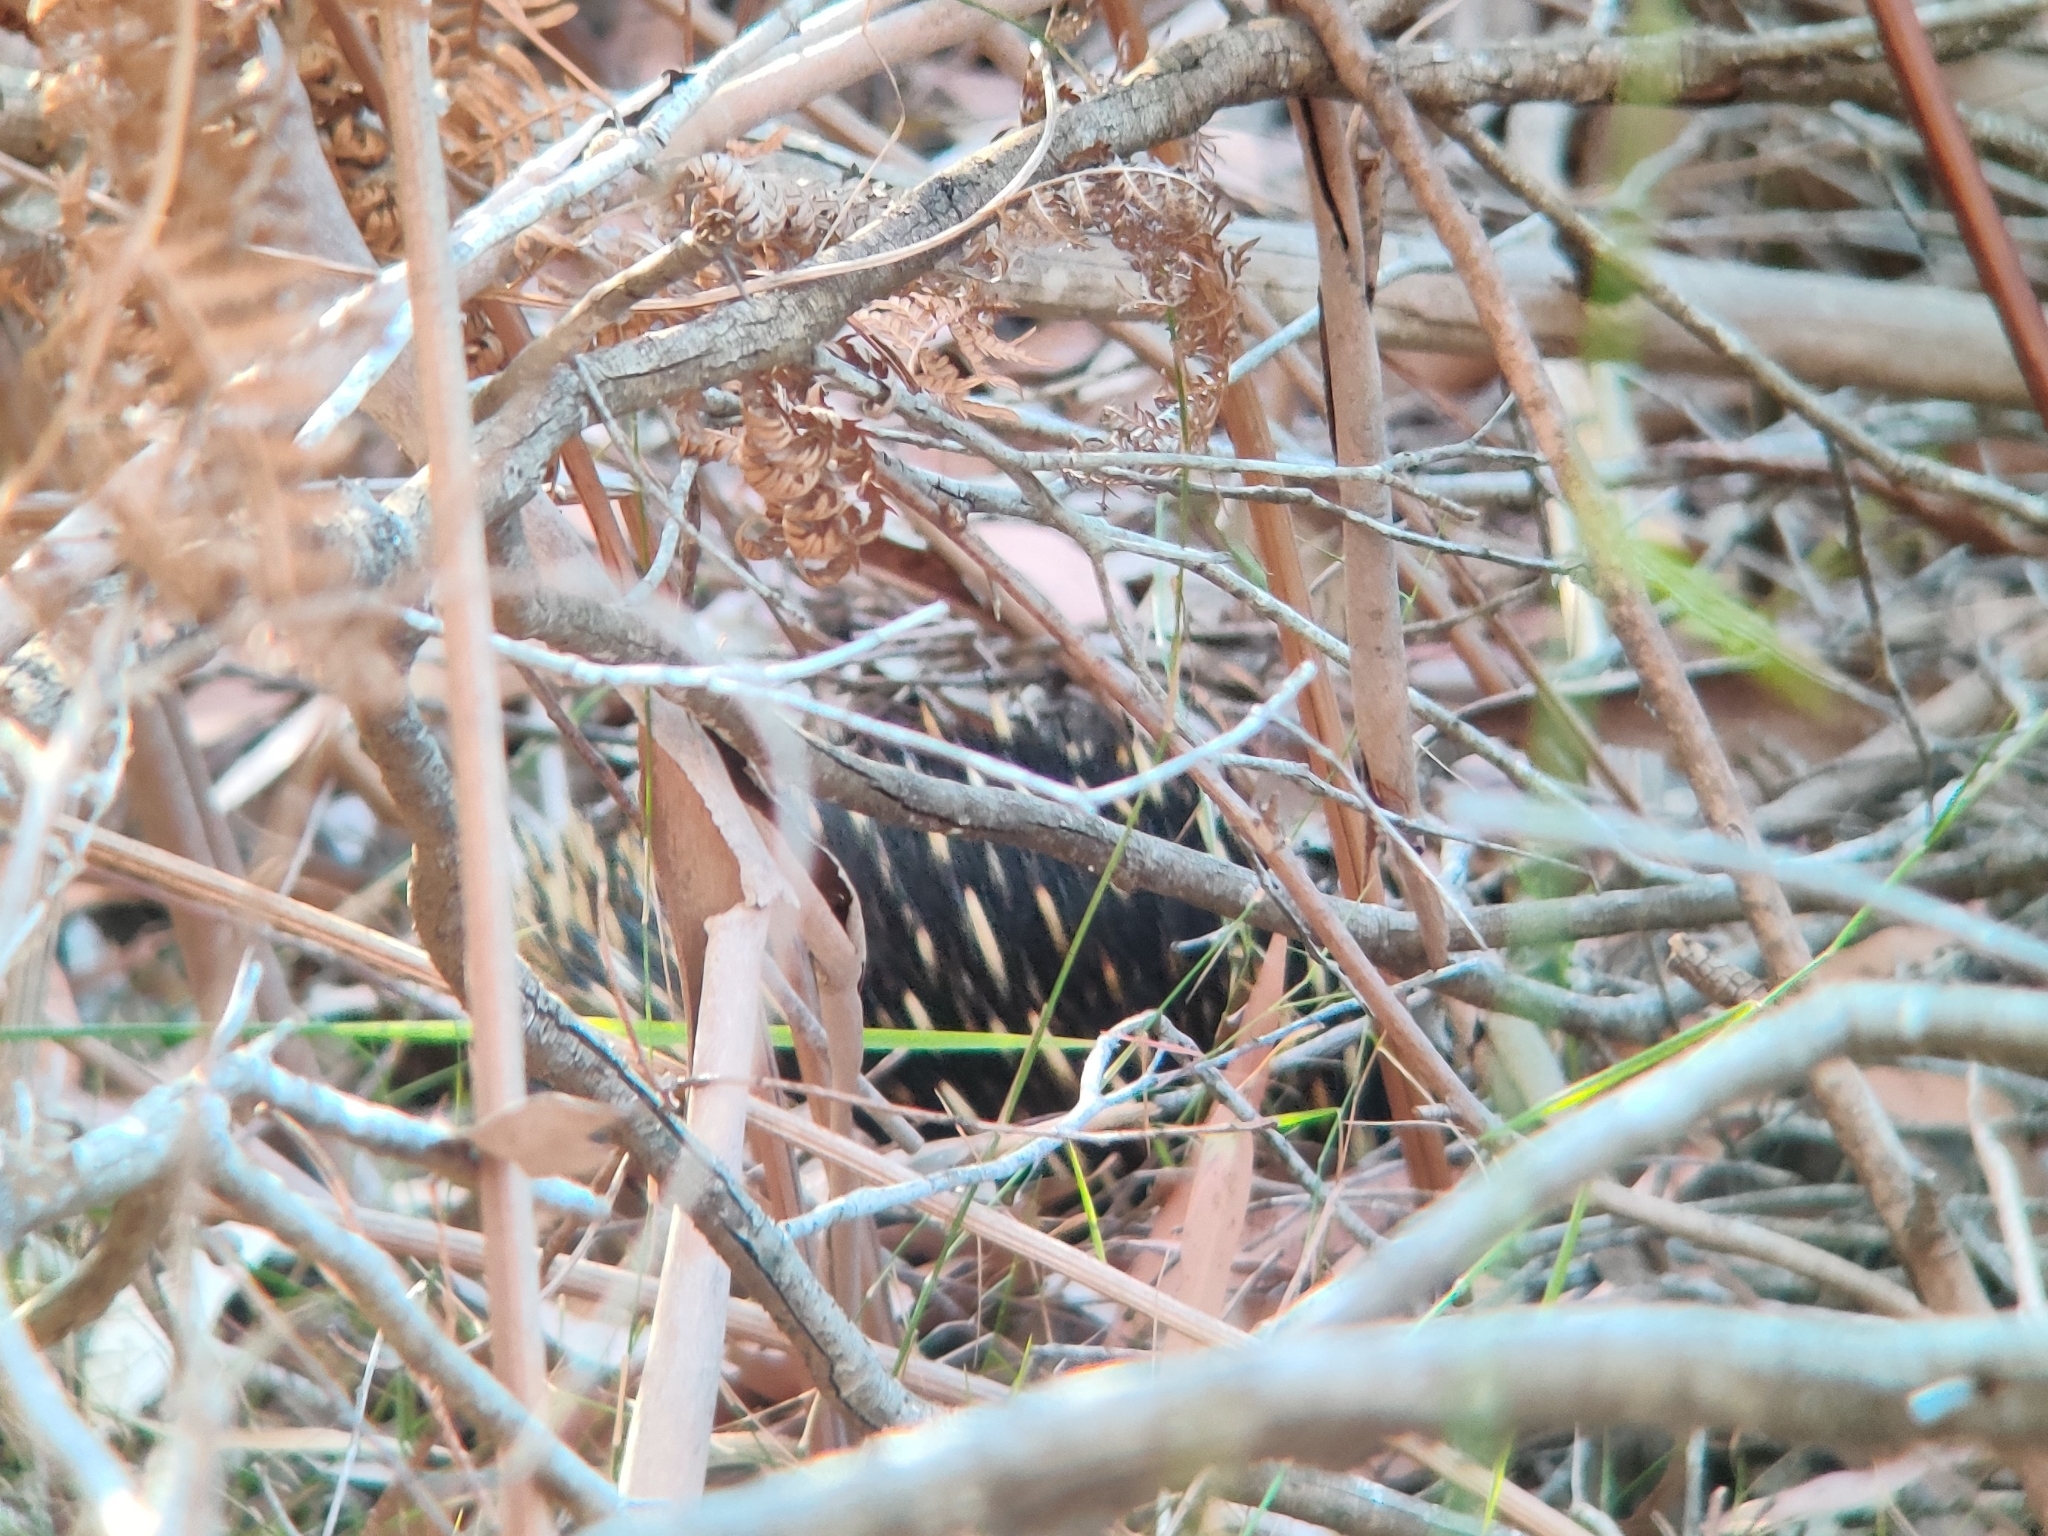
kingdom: Animalia
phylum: Chordata
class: Mammalia
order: Monotremata
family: Tachyglossidae
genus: Tachyglossus
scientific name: Tachyglossus aculeatus
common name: Short-beaked echidna
